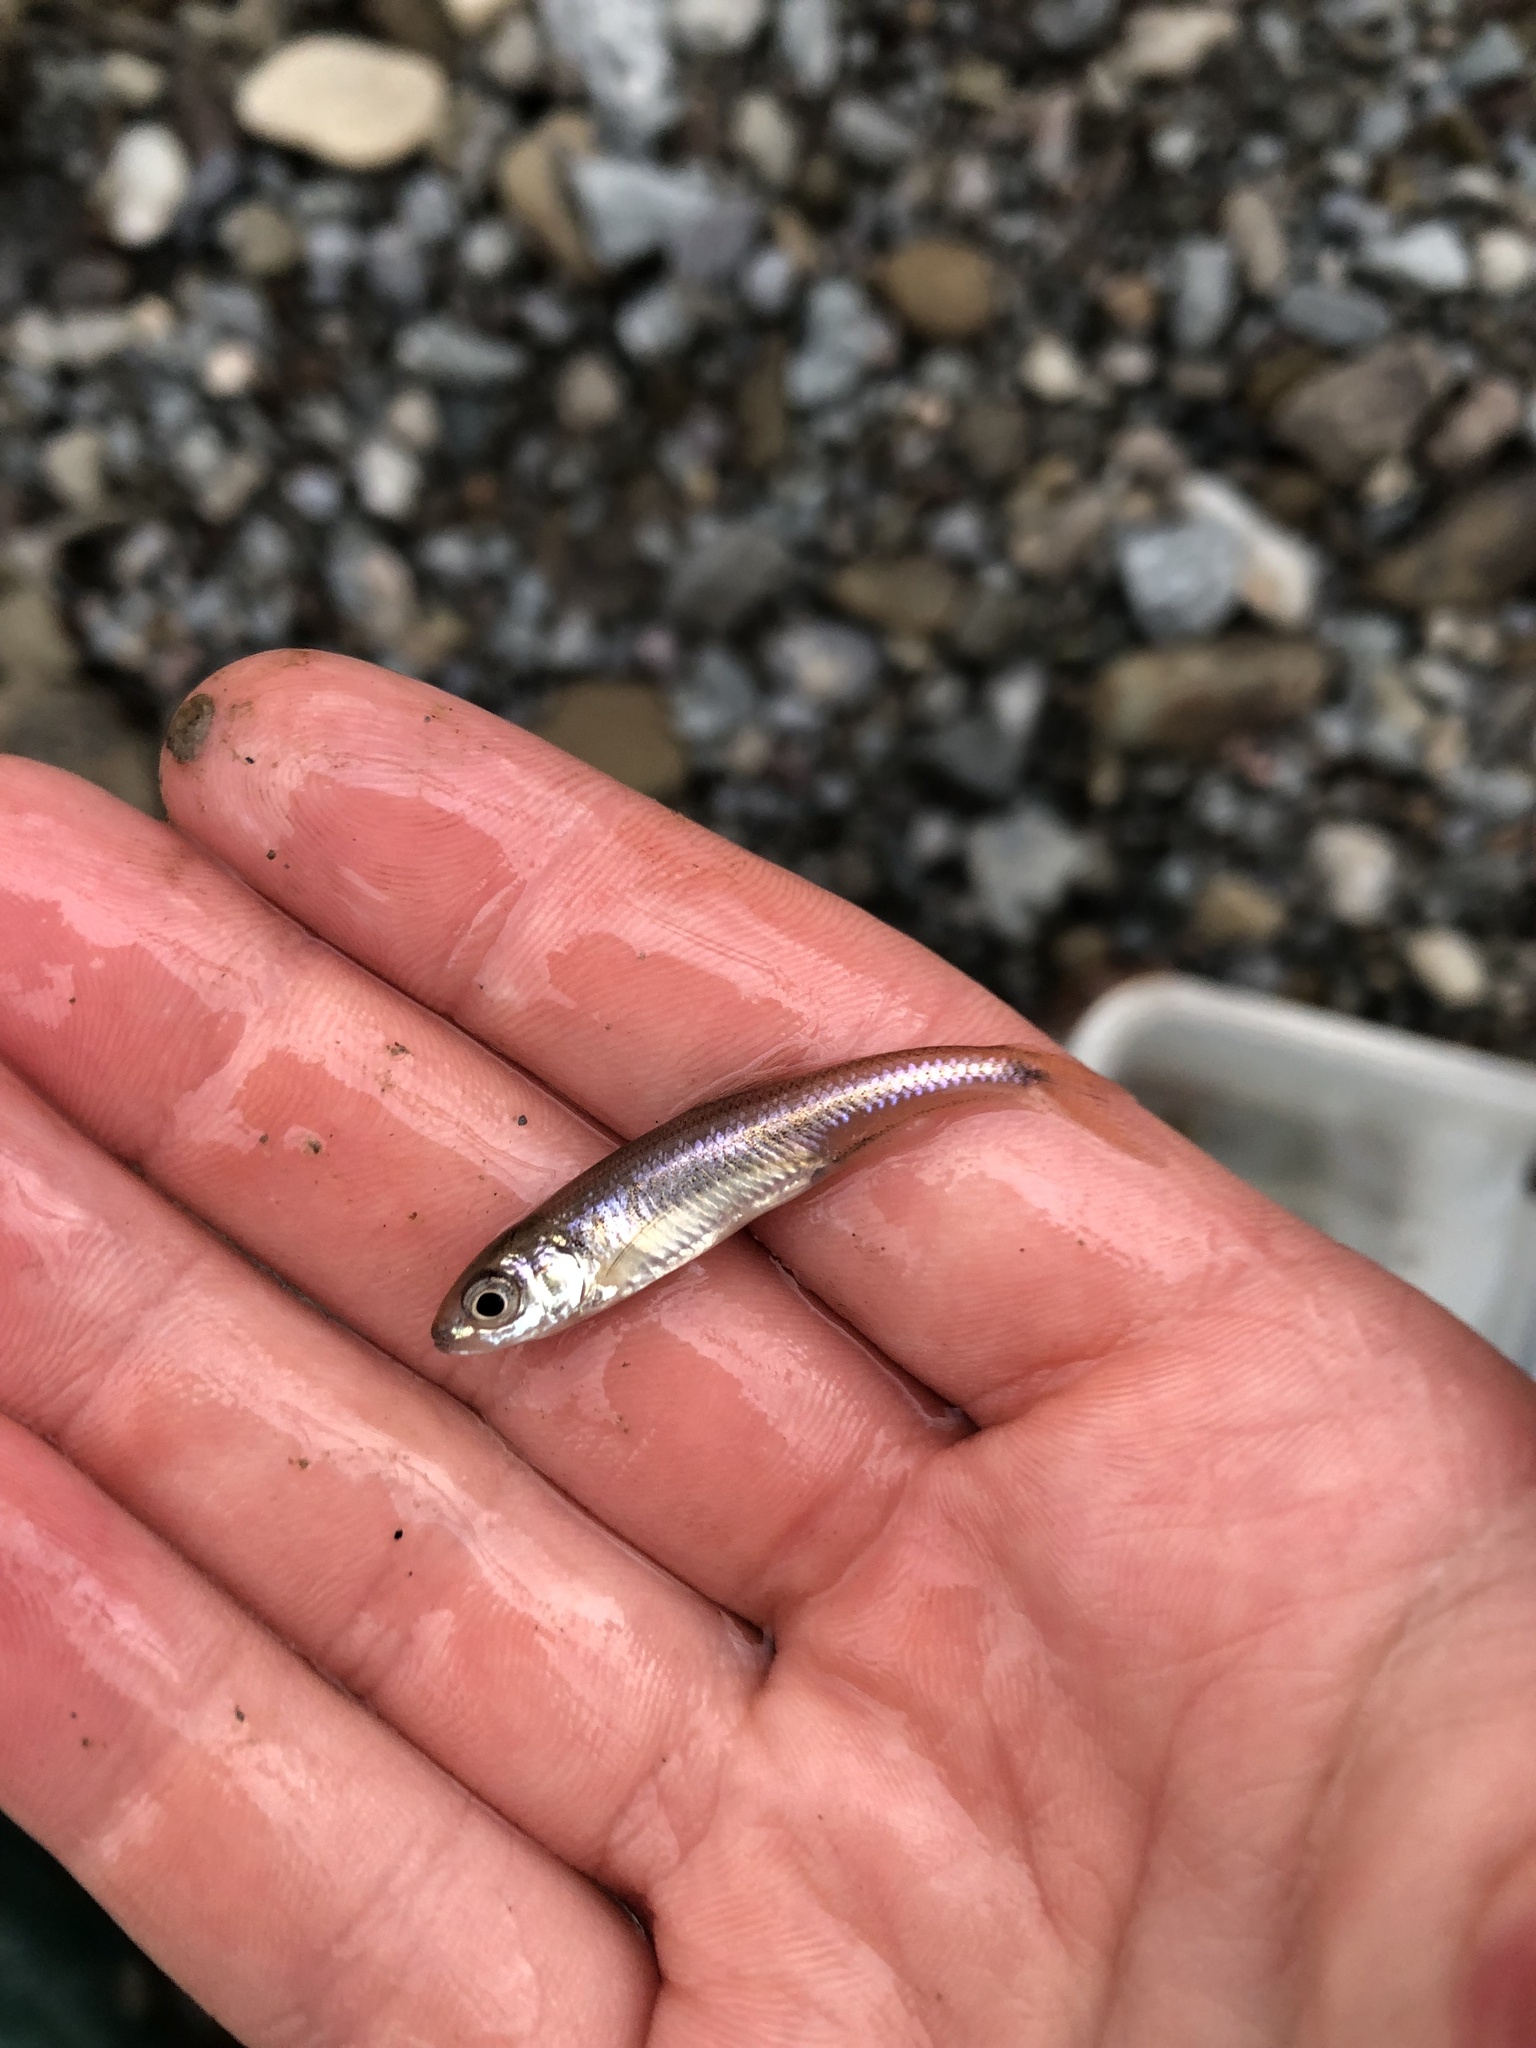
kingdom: Animalia
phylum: Chordata
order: Cypriniformes
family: Cyprinidae
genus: Luxilus
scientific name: Luxilus cornutus
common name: Common shiner
